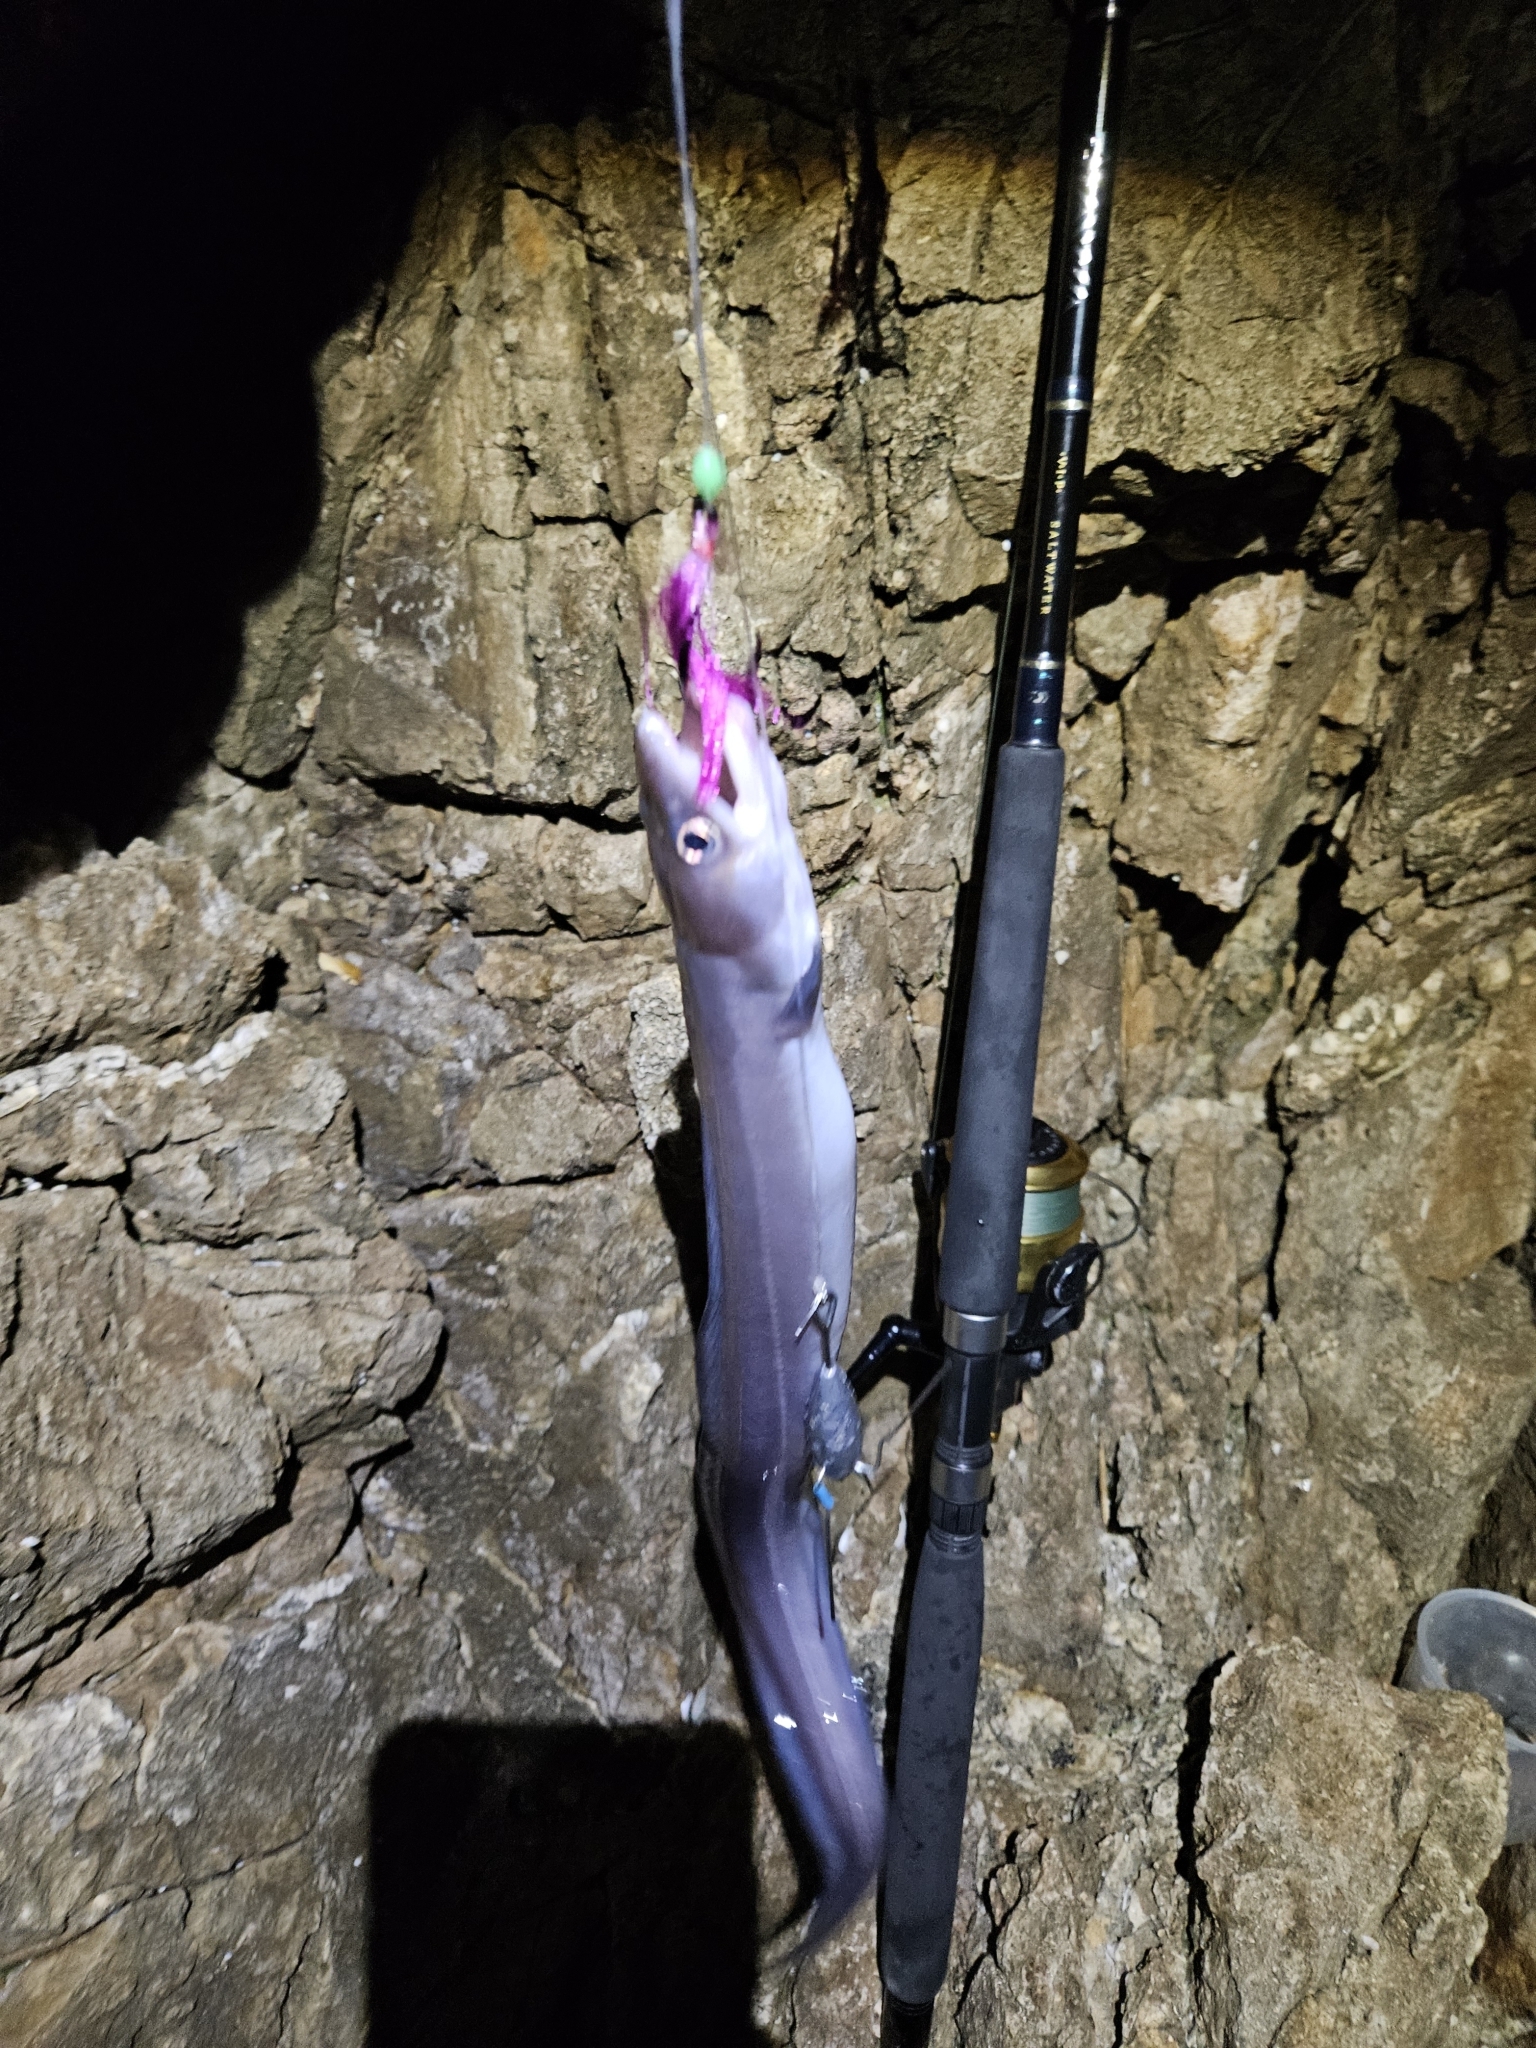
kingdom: Animalia
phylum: Chordata
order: Anguilliformes
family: Congridae
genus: Conger
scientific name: Conger monganius
